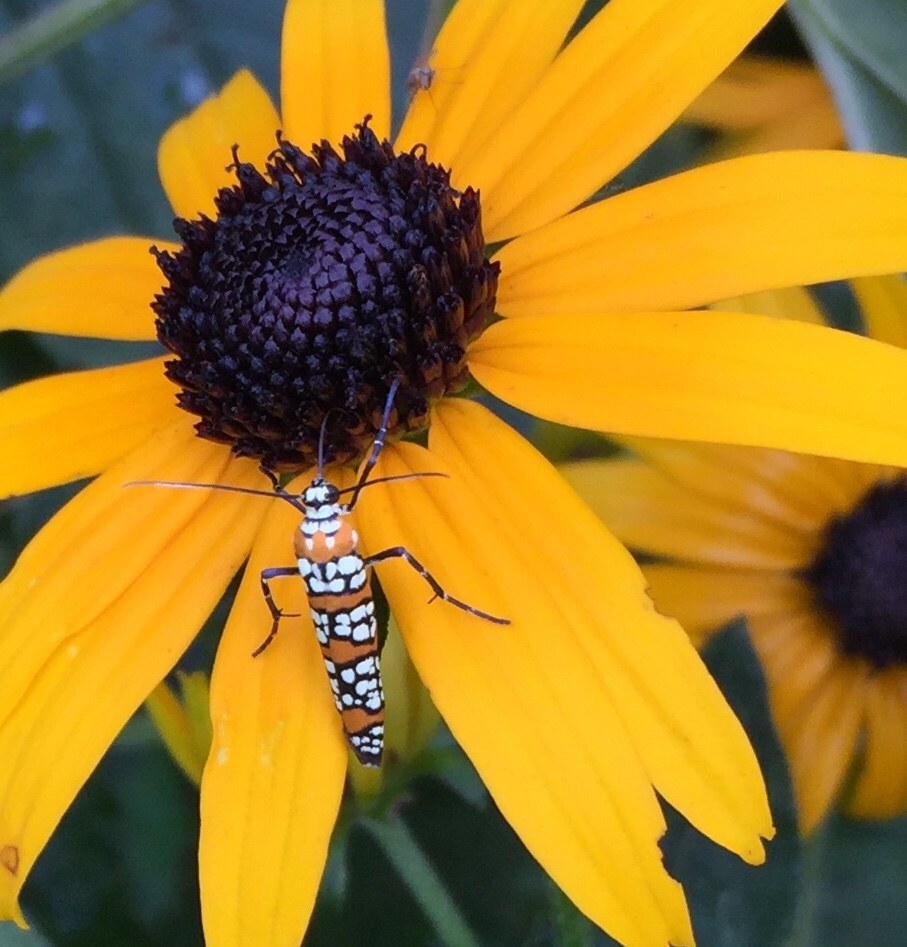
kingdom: Animalia
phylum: Arthropoda
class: Insecta
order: Lepidoptera
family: Attevidae
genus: Atteva
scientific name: Atteva punctella
